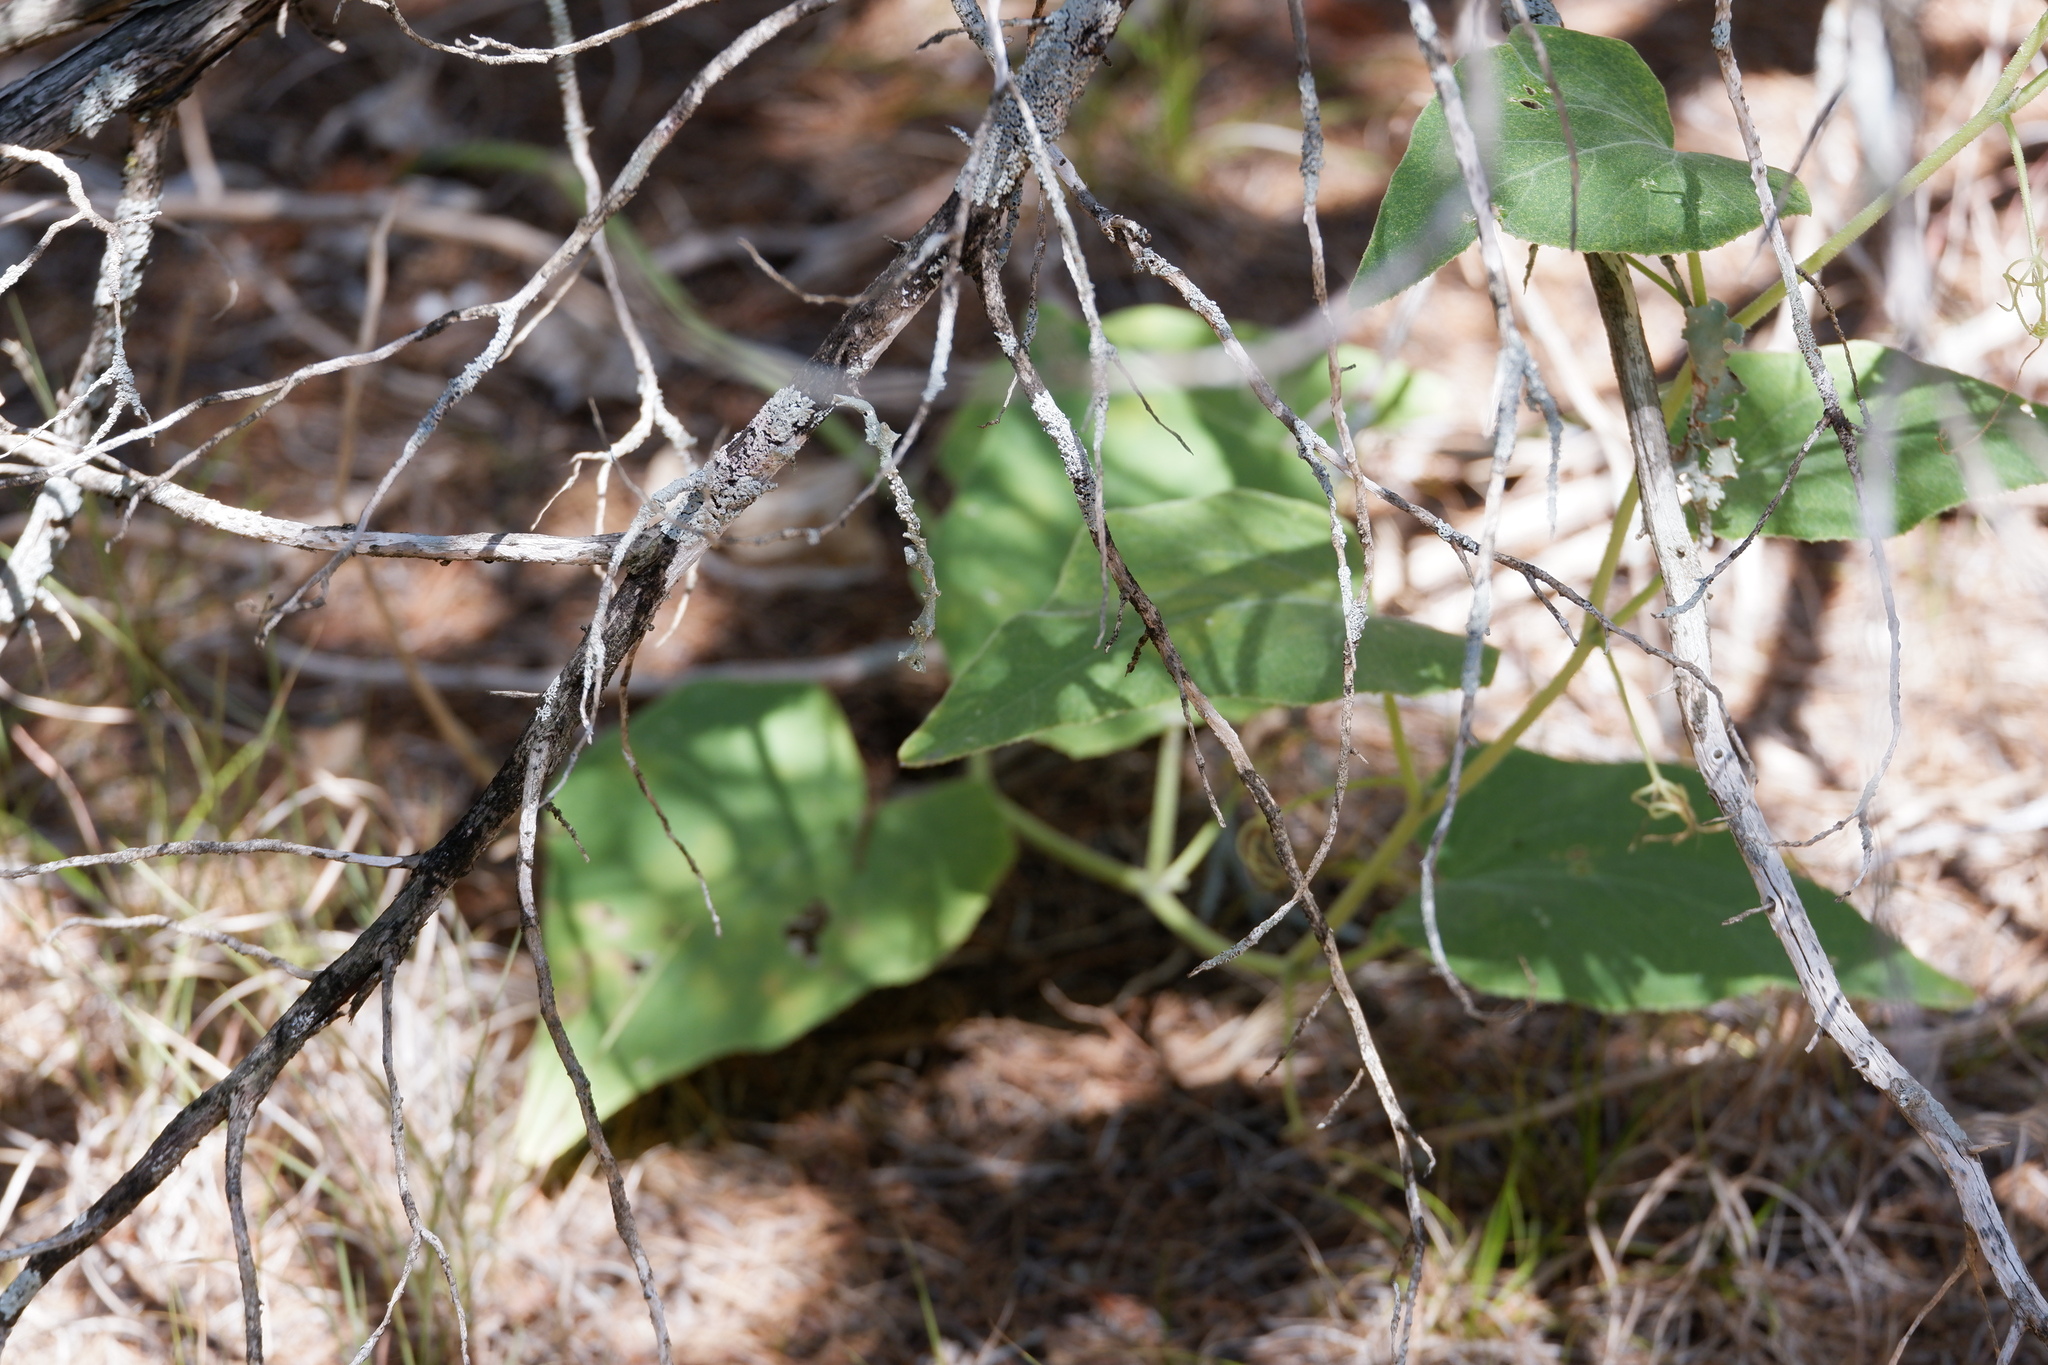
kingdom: Plantae
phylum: Tracheophyta
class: Magnoliopsida
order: Cucurbitales
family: Cucurbitaceae
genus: Cucurbita
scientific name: Cucurbita foetidissima
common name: Buffalo gourd
